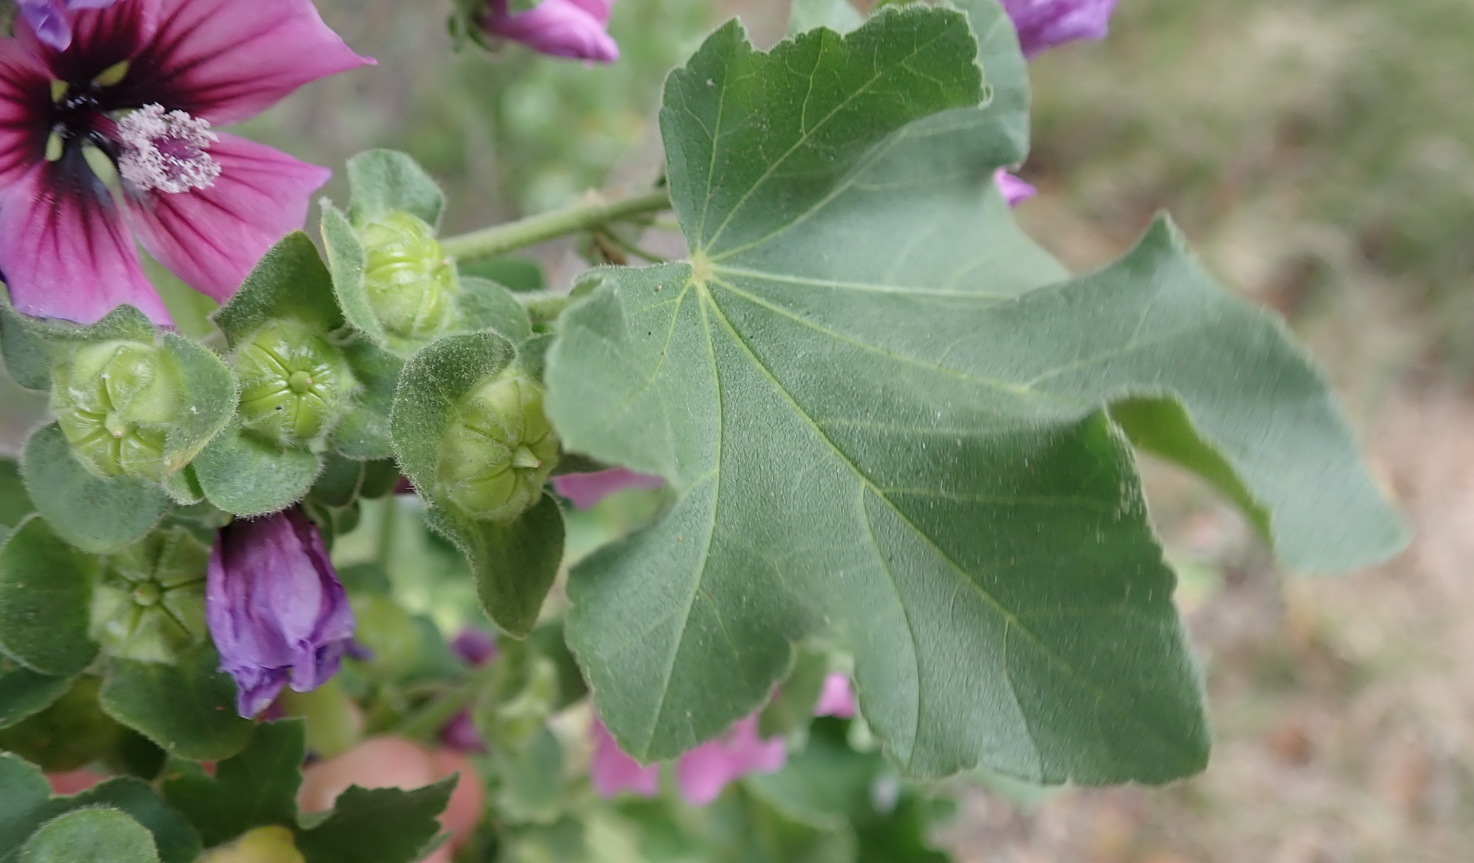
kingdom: Plantae
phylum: Tracheophyta
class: Magnoliopsida
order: Malvales
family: Malvaceae
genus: Malva
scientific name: Malva arborea
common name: Tree mallow
